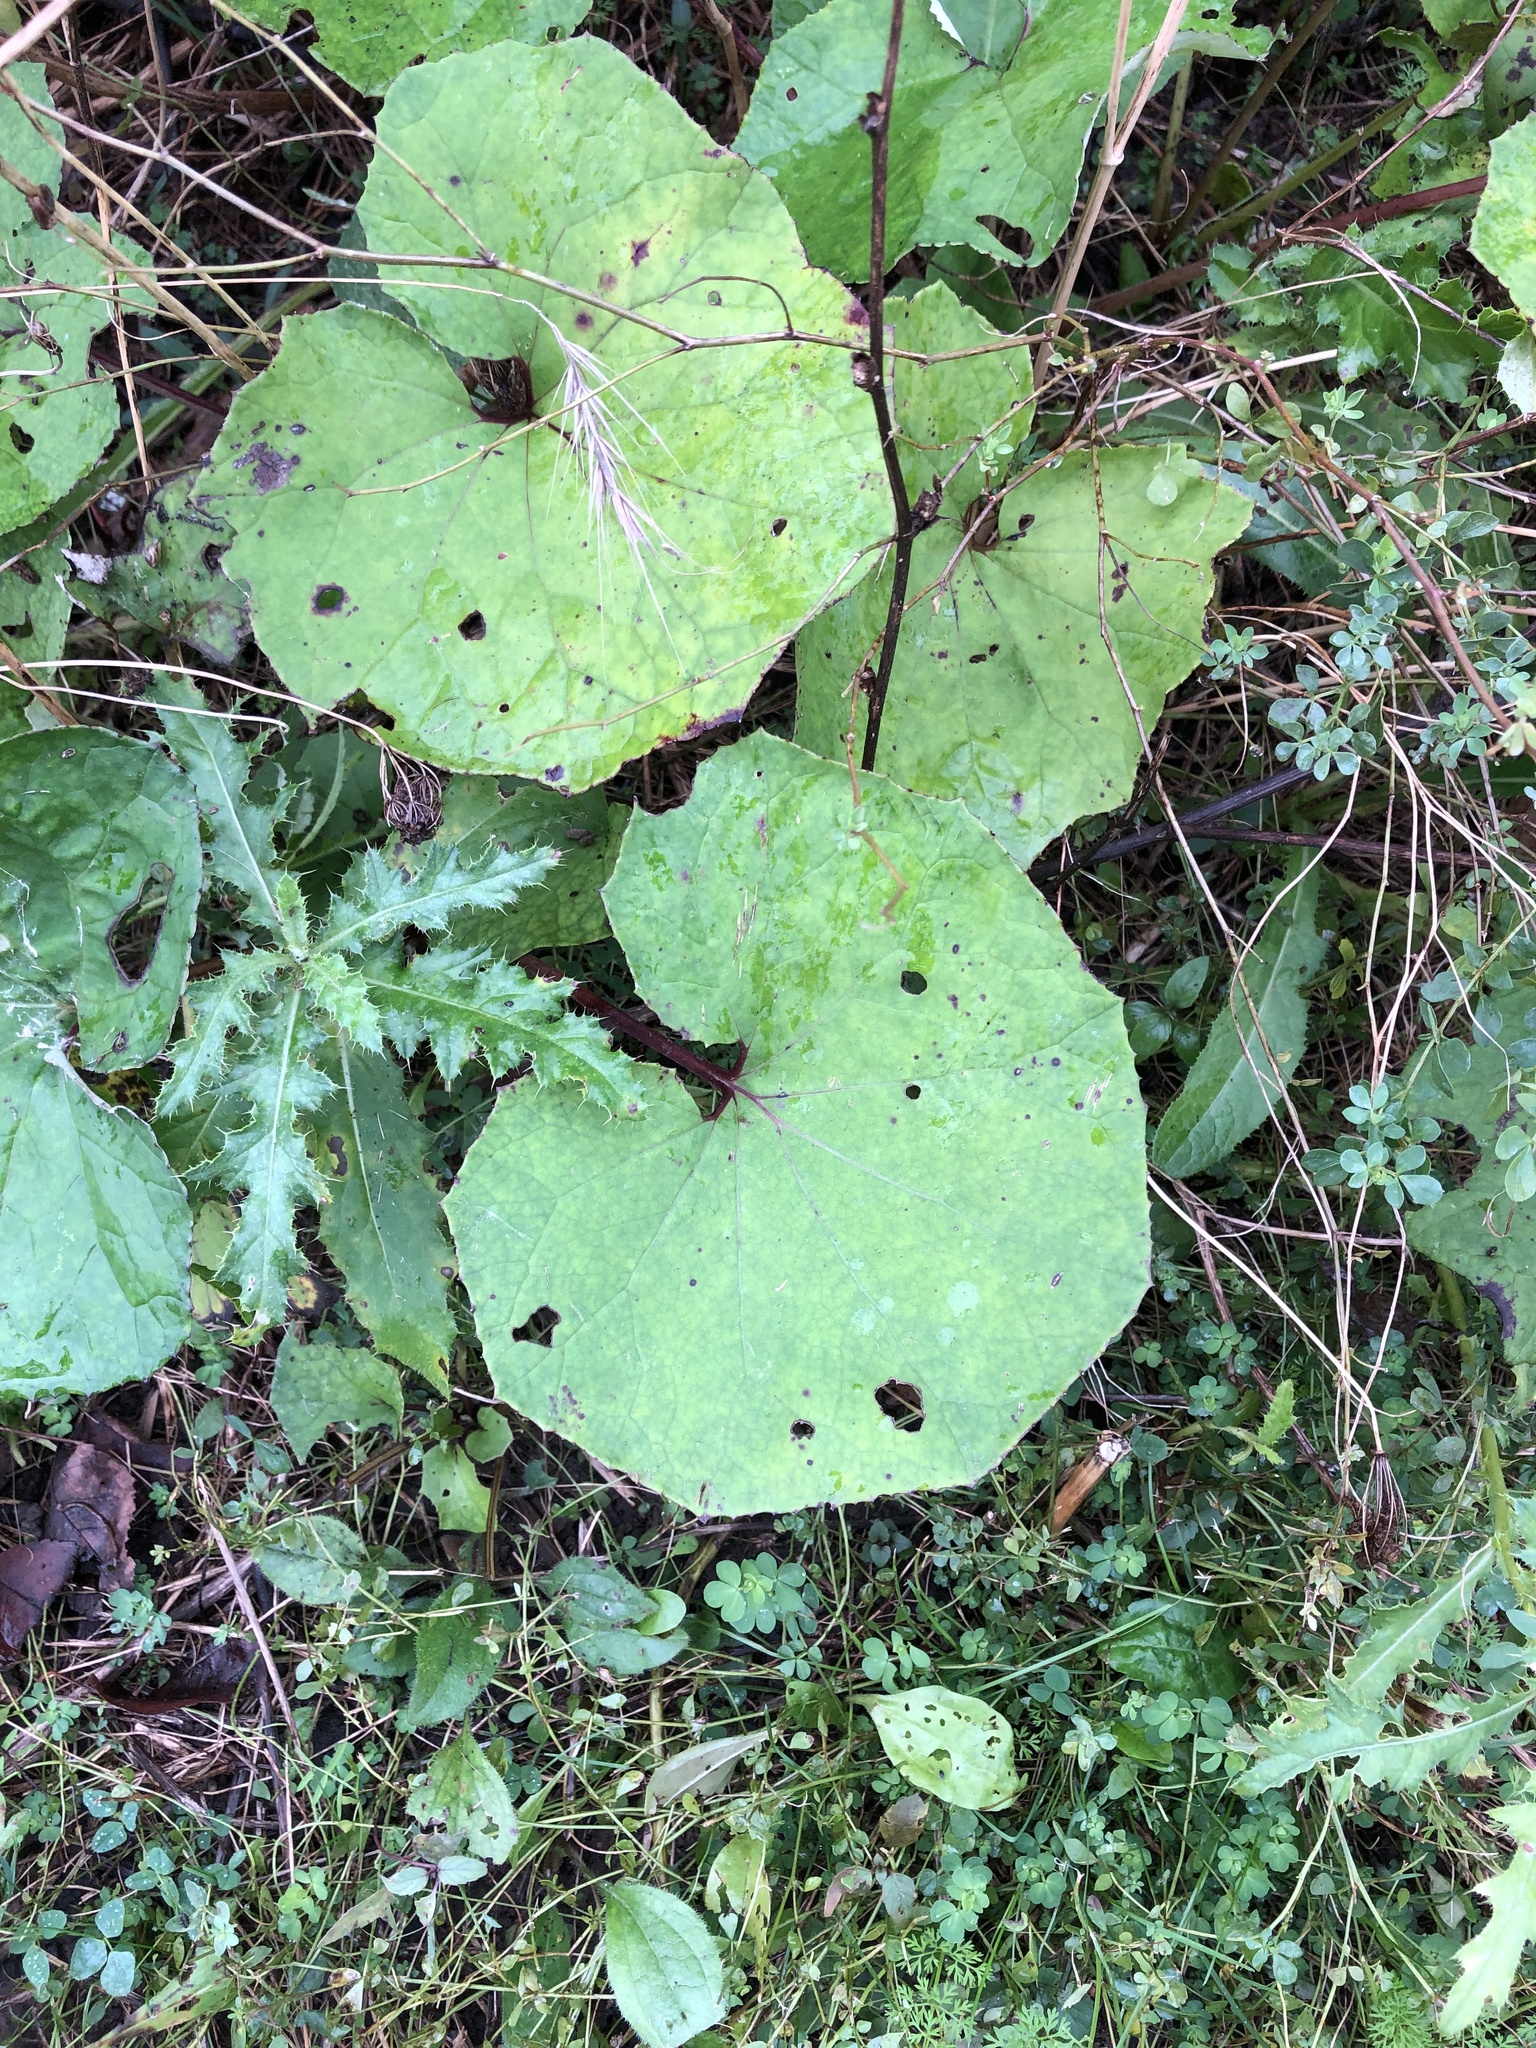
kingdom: Plantae
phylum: Tracheophyta
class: Magnoliopsida
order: Asterales
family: Asteraceae
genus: Tussilago
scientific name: Tussilago farfara
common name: Coltsfoot
